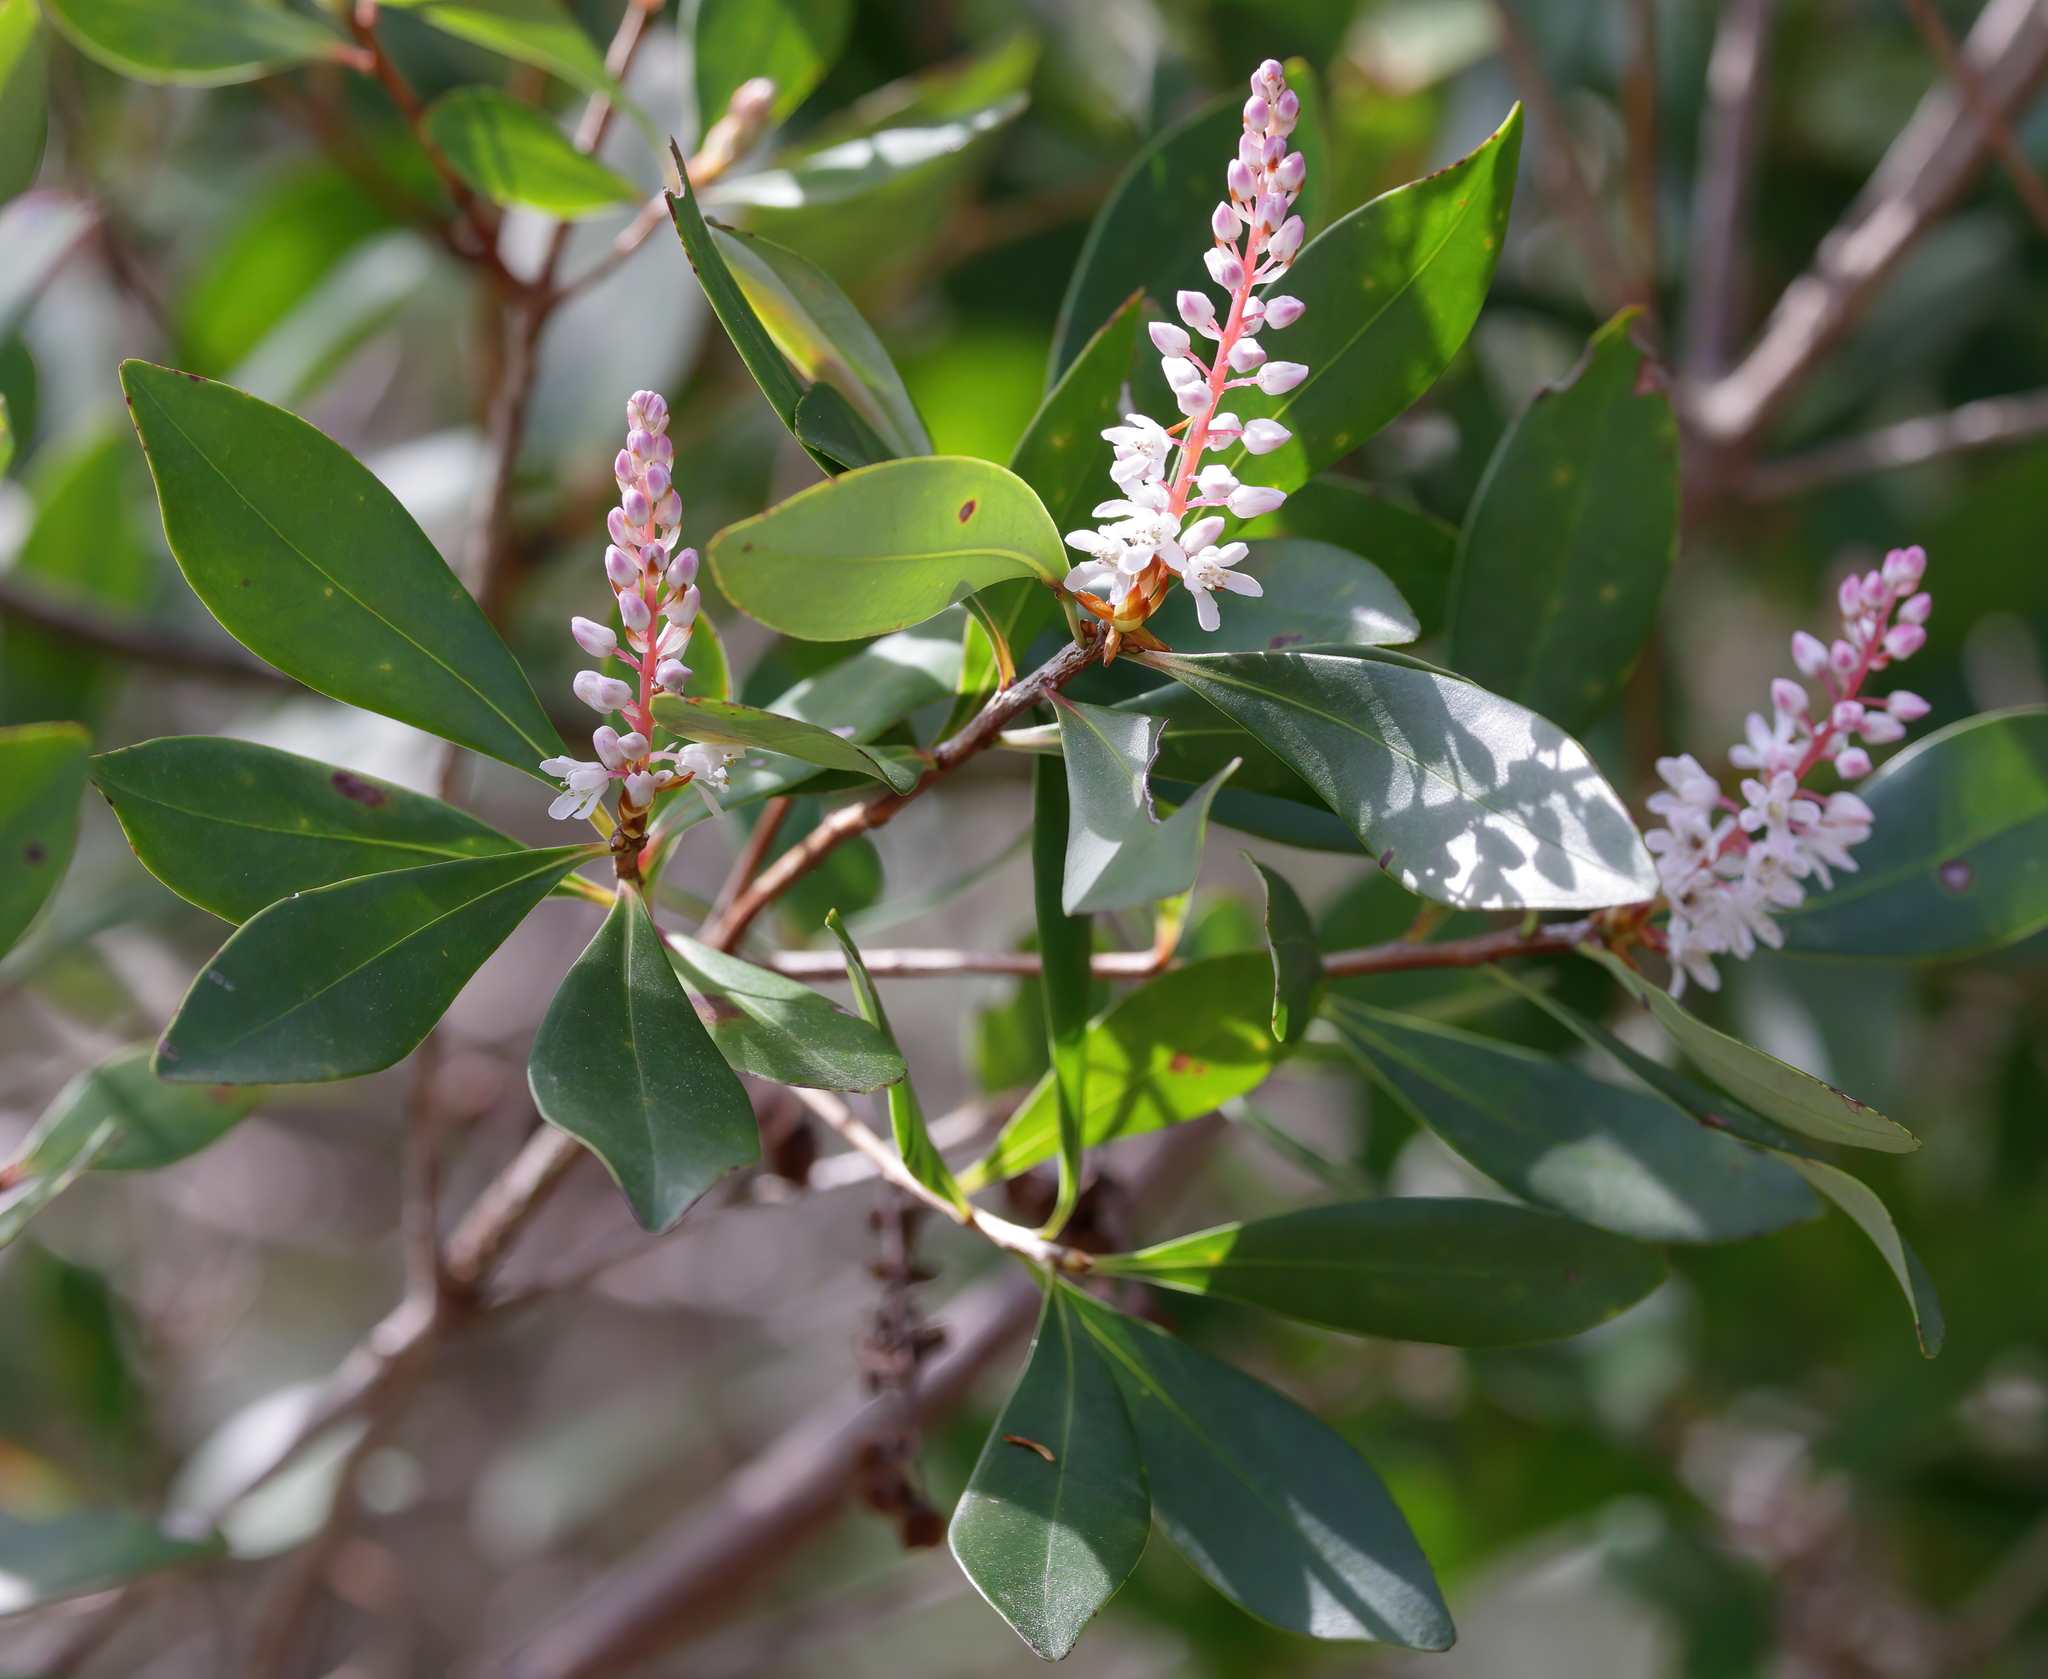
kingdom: Plantae
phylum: Tracheophyta
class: Magnoliopsida
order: Ericales
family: Cyrillaceae
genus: Cliftonia
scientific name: Cliftonia monophylla
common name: Titi
